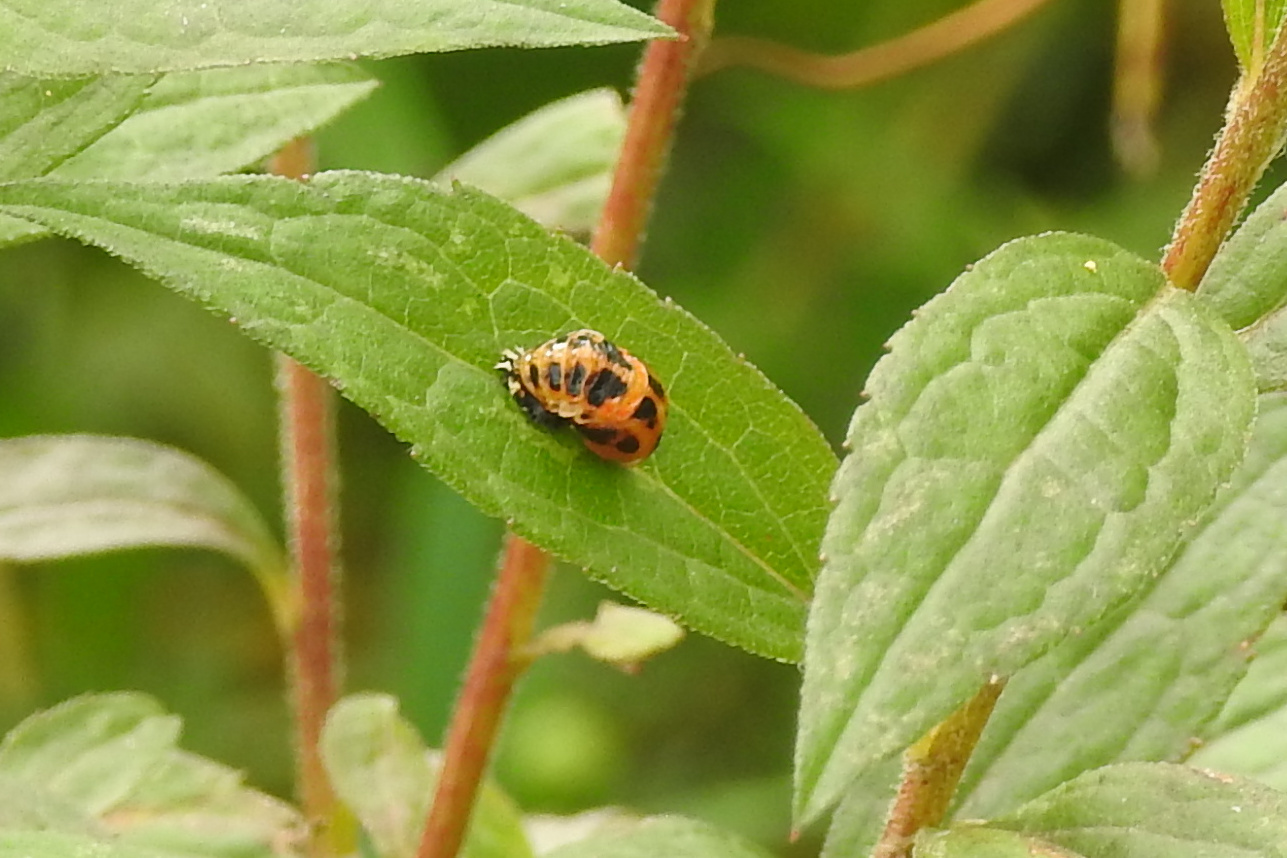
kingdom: Animalia
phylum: Arthropoda
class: Insecta
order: Coleoptera
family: Coccinellidae
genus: Harmonia
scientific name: Harmonia axyridis
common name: Harlequin ladybird
